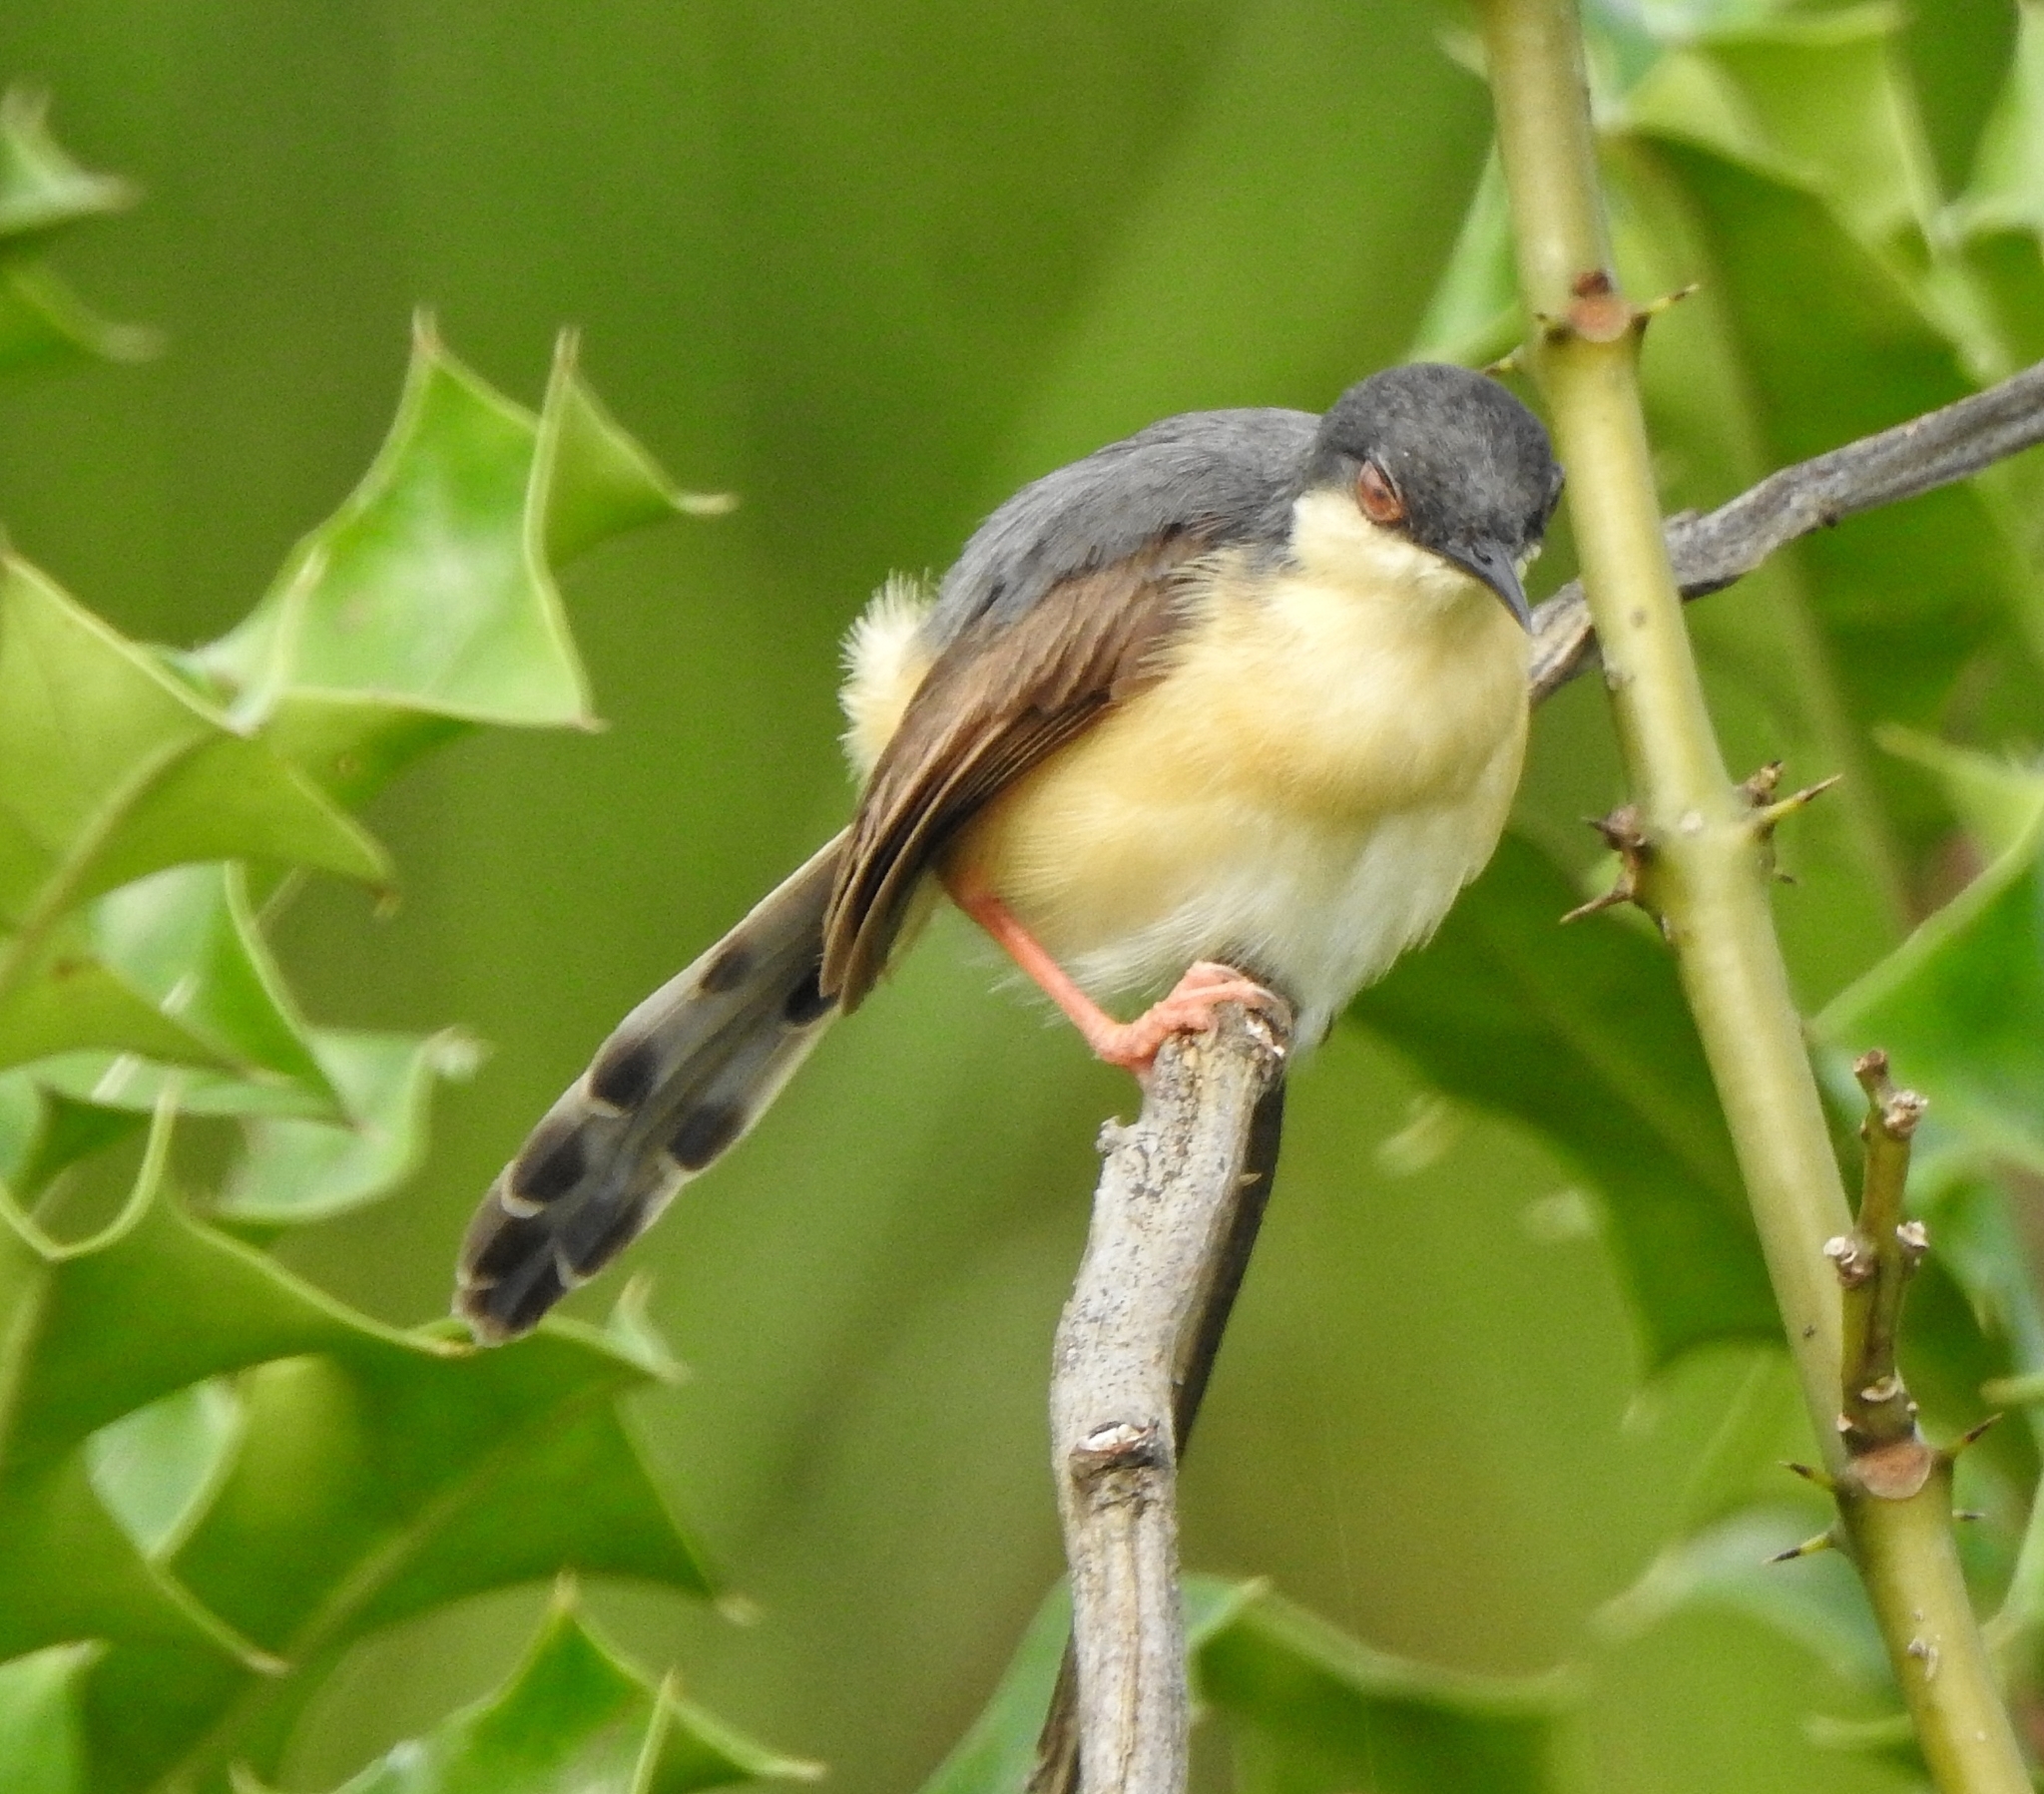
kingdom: Animalia
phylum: Chordata
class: Aves
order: Passeriformes
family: Cisticolidae
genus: Prinia
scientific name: Prinia socialis
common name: Ashy prinia
